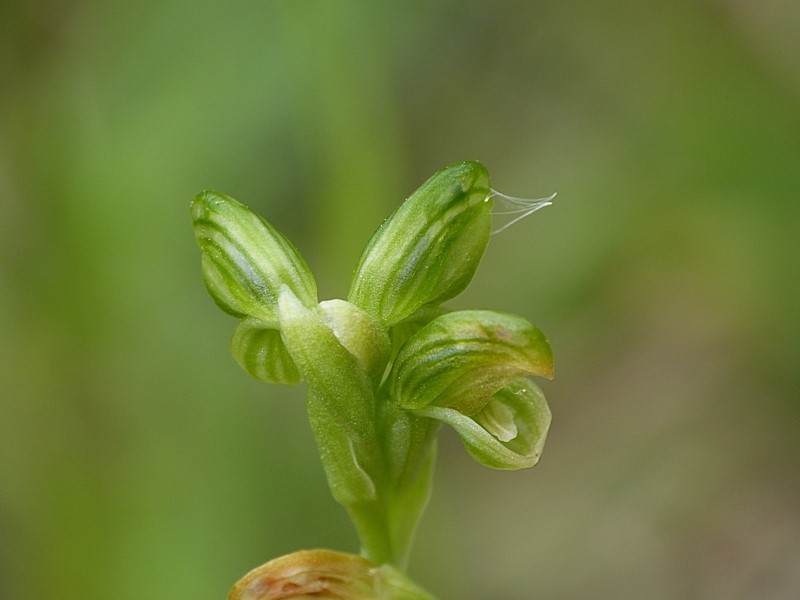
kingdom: Plantae
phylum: Tracheophyta
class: Liliopsida
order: Asparagales
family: Orchidaceae
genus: Pterostylis
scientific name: Pterostylis bicolor
